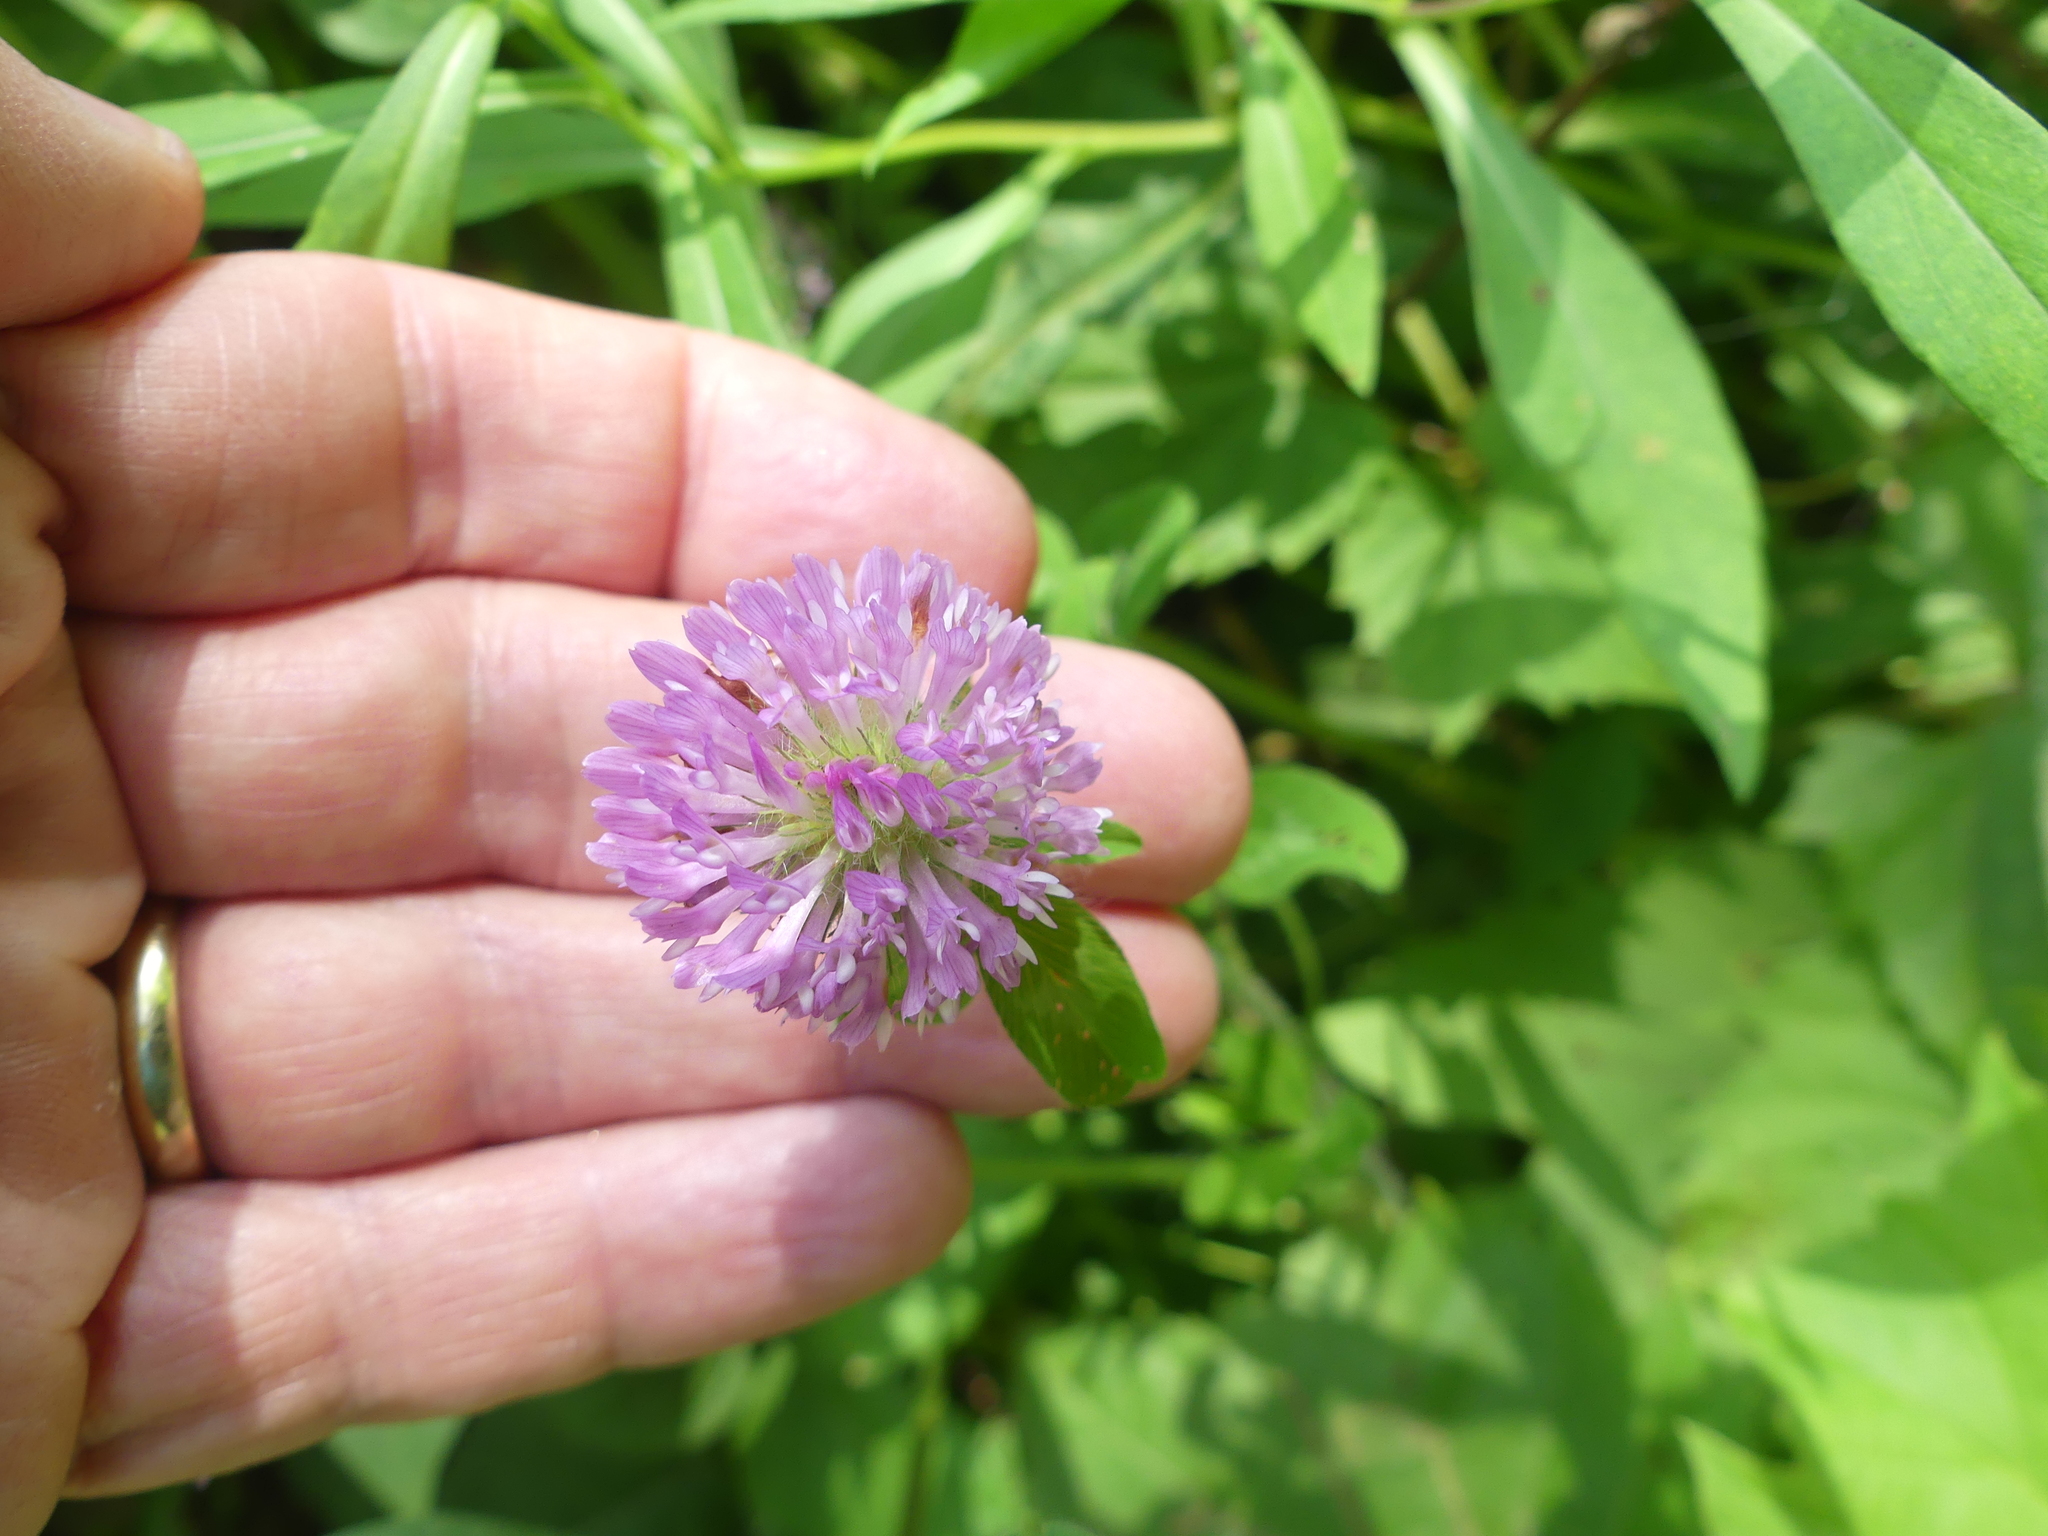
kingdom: Plantae
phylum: Tracheophyta
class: Magnoliopsida
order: Fabales
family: Fabaceae
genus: Trifolium
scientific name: Trifolium pratense
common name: Red clover
